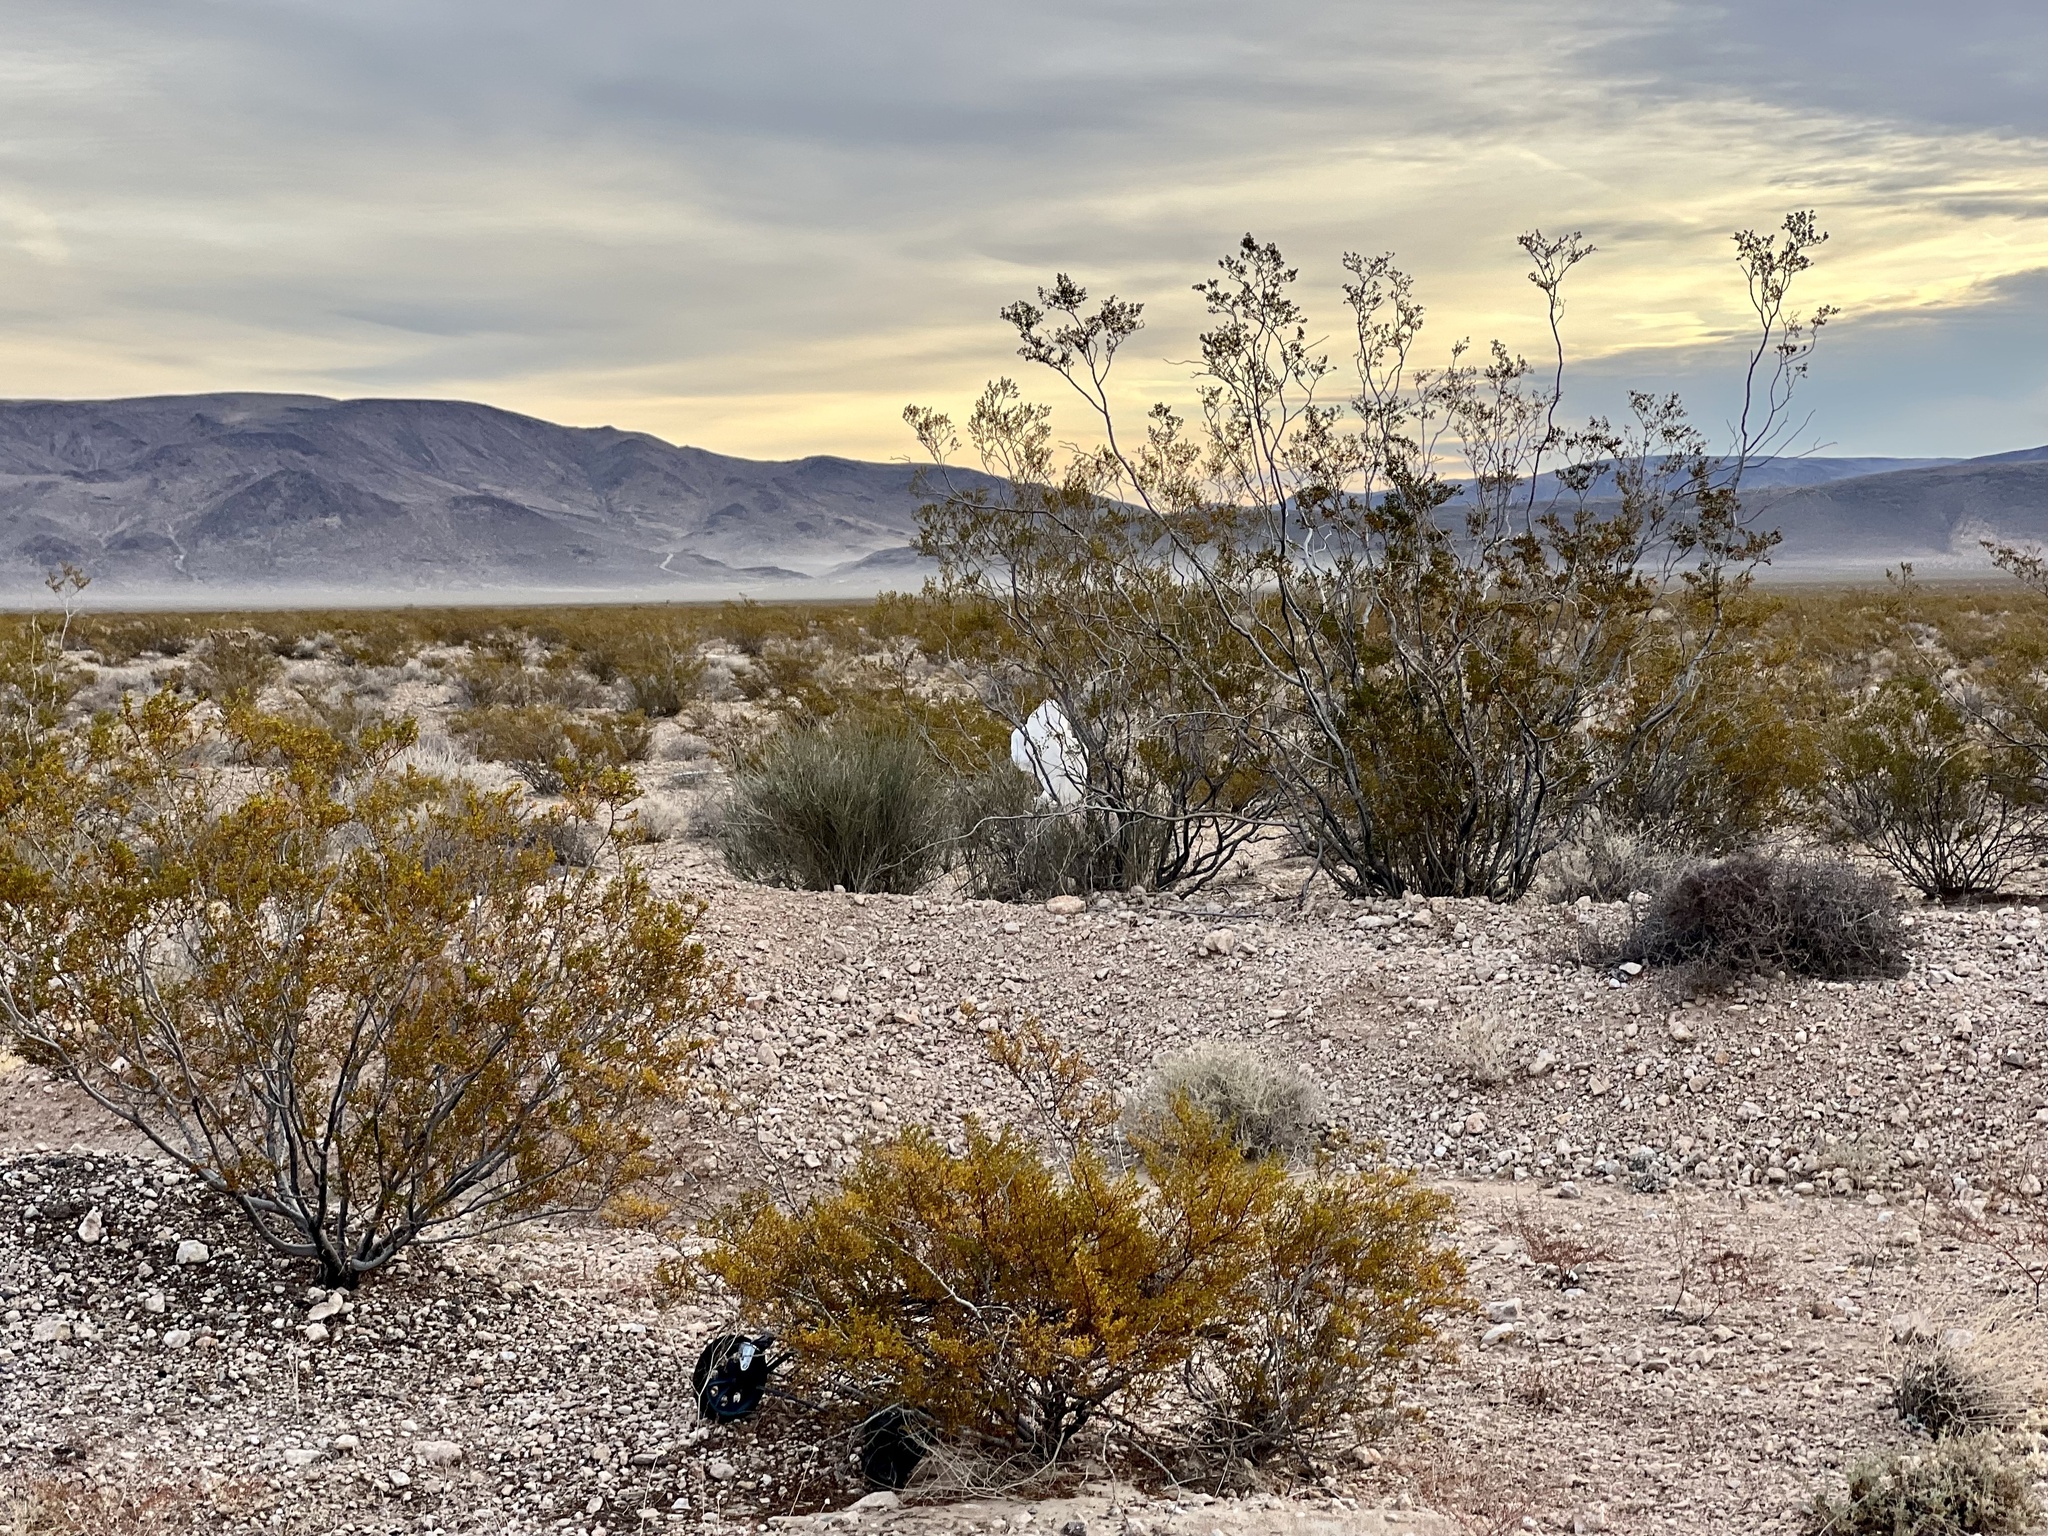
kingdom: Plantae
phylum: Tracheophyta
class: Magnoliopsida
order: Zygophyllales
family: Zygophyllaceae
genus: Larrea
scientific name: Larrea tridentata
